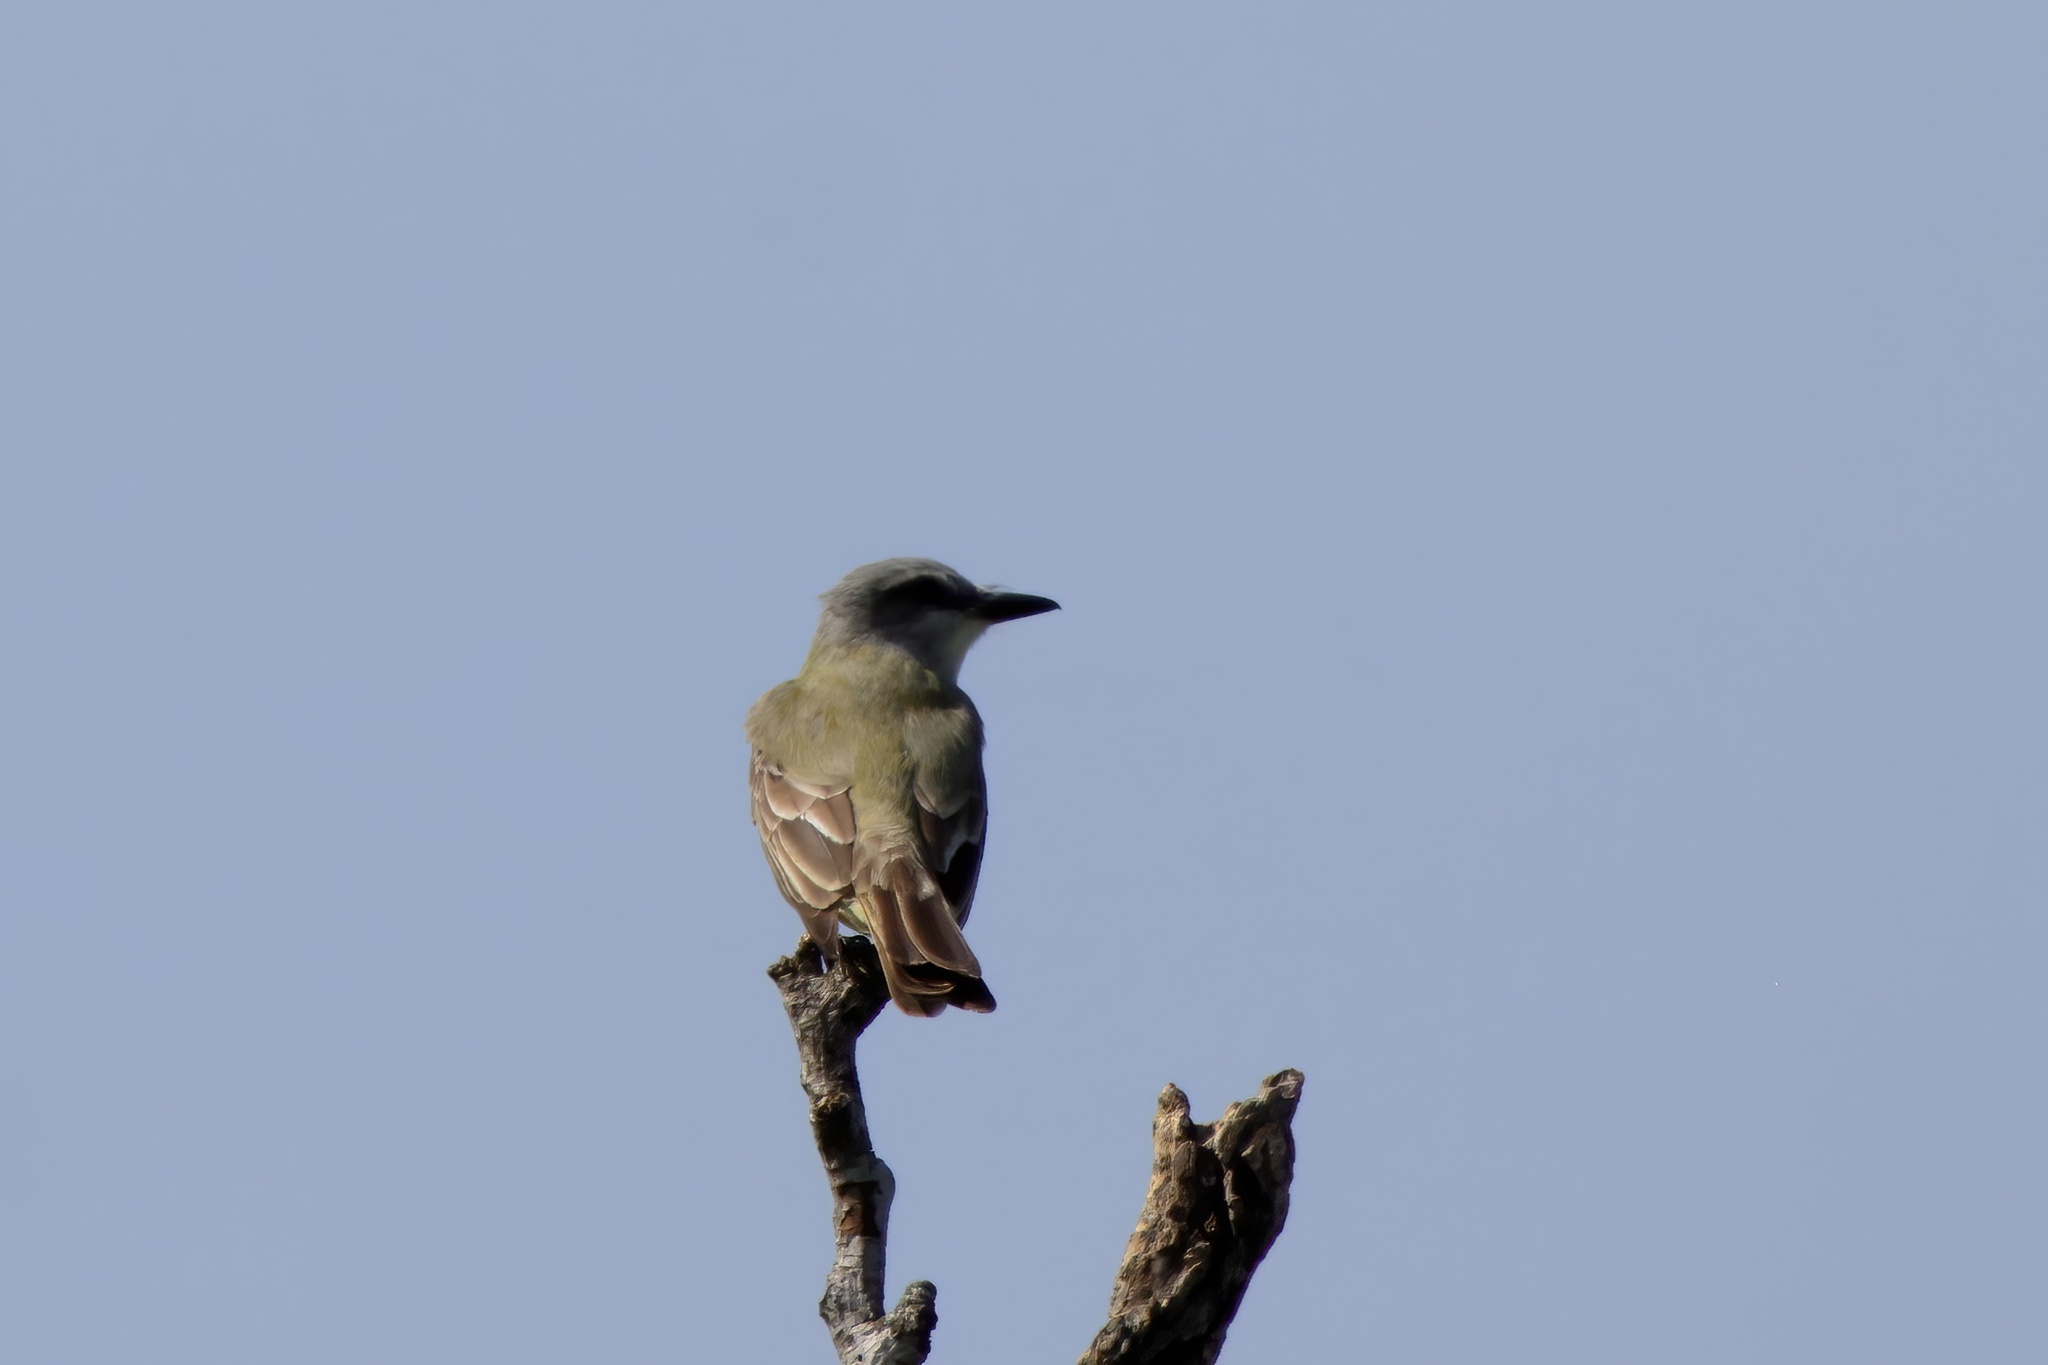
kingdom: Animalia
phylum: Chordata
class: Aves
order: Passeriformes
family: Tyrannidae
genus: Tyrannus
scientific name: Tyrannus couchii
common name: Couch's kingbird
